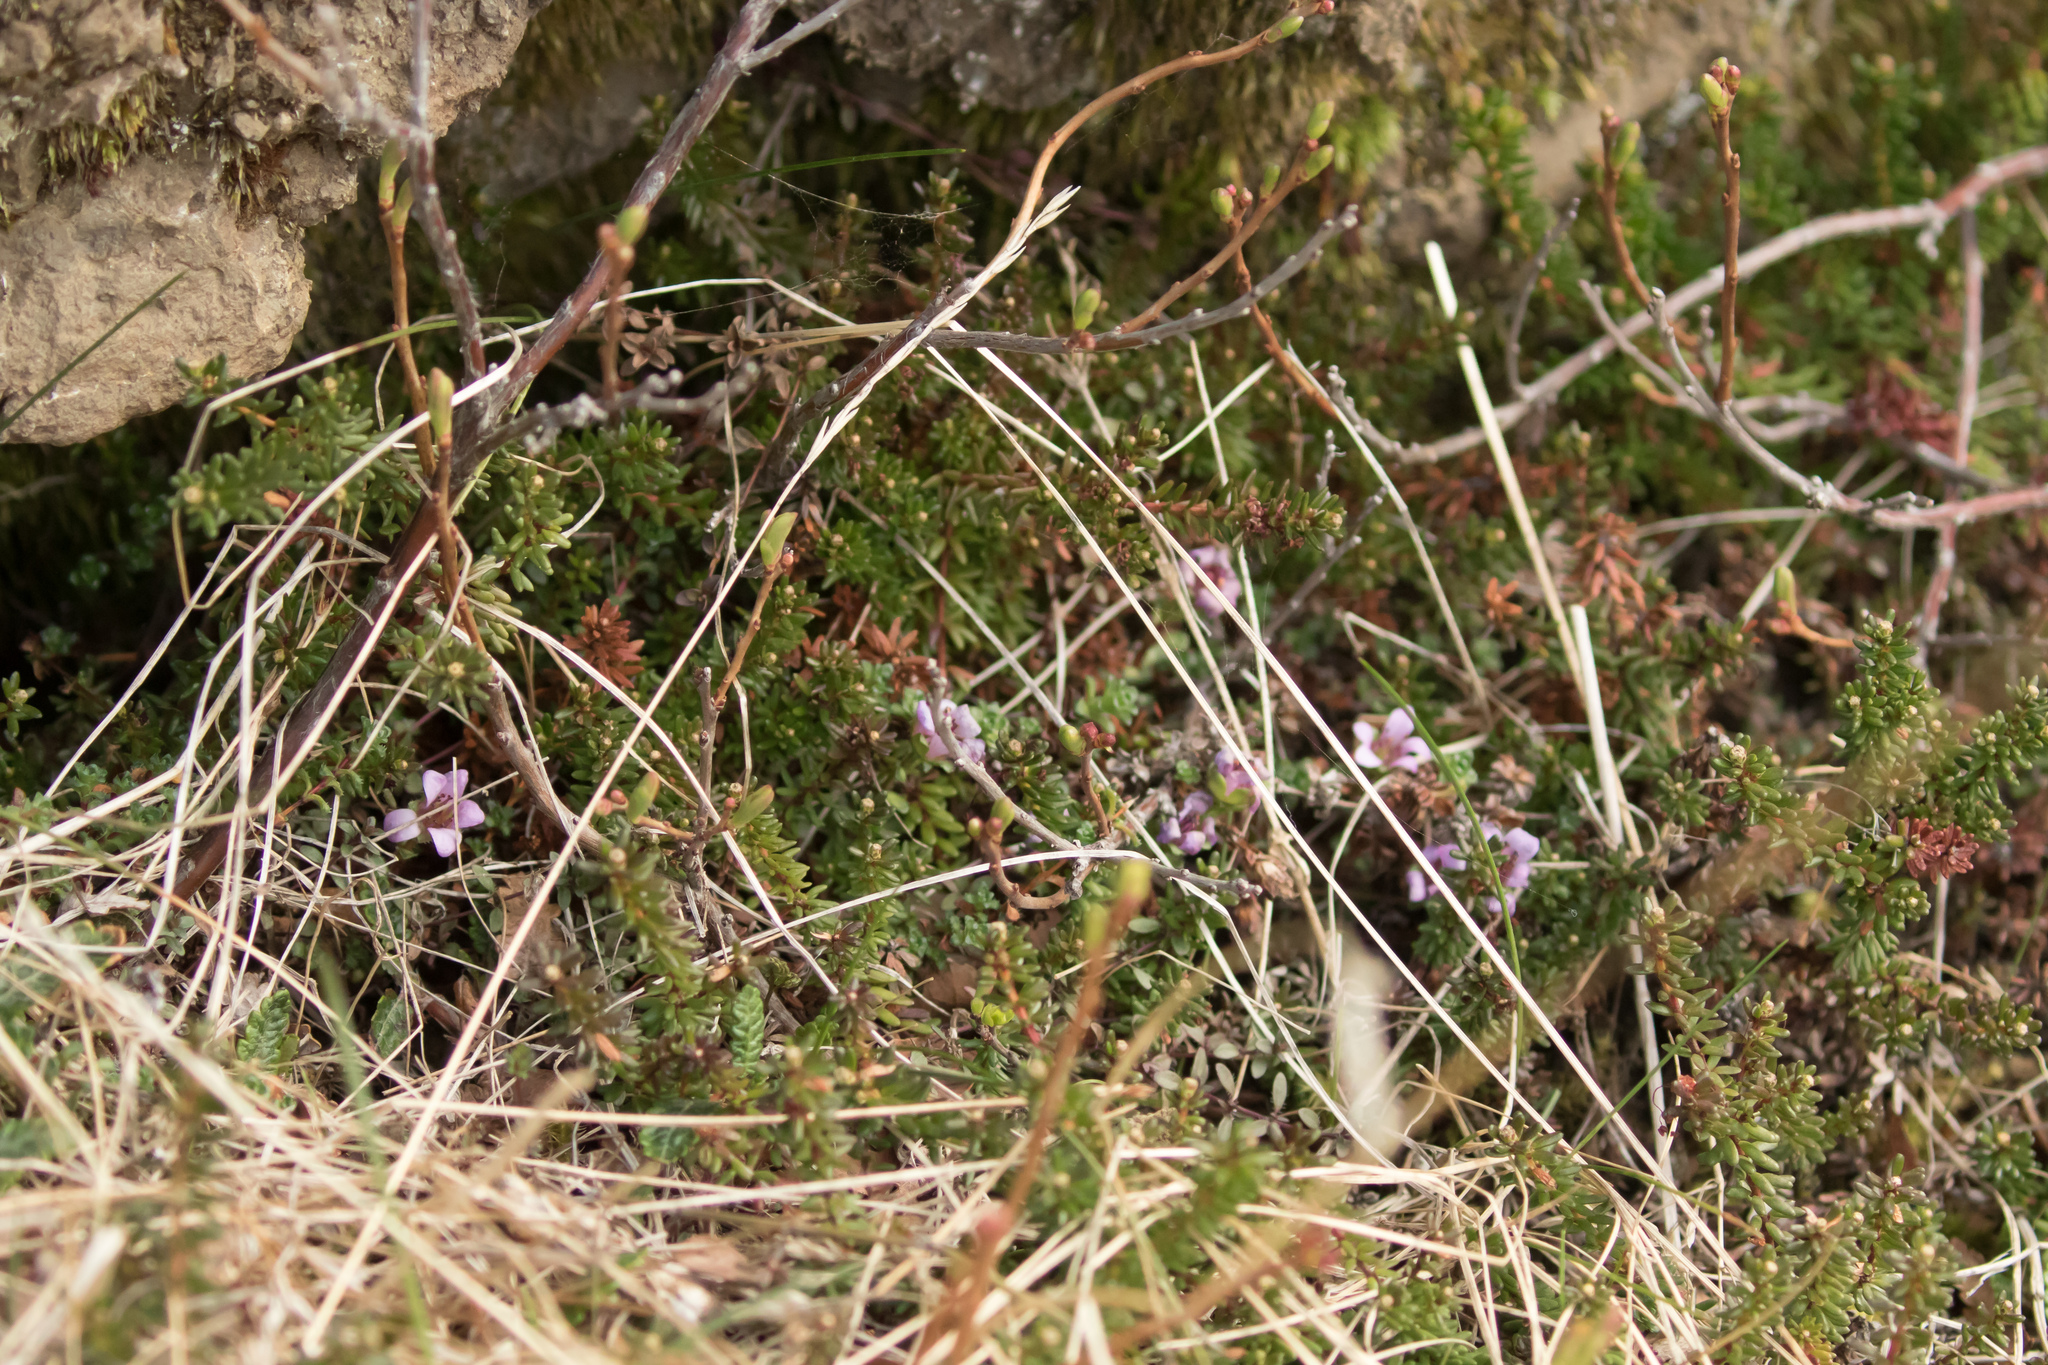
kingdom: Plantae
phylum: Tracheophyta
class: Magnoliopsida
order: Ericales
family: Ericaceae
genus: Kalmia
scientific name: Kalmia procumbens
